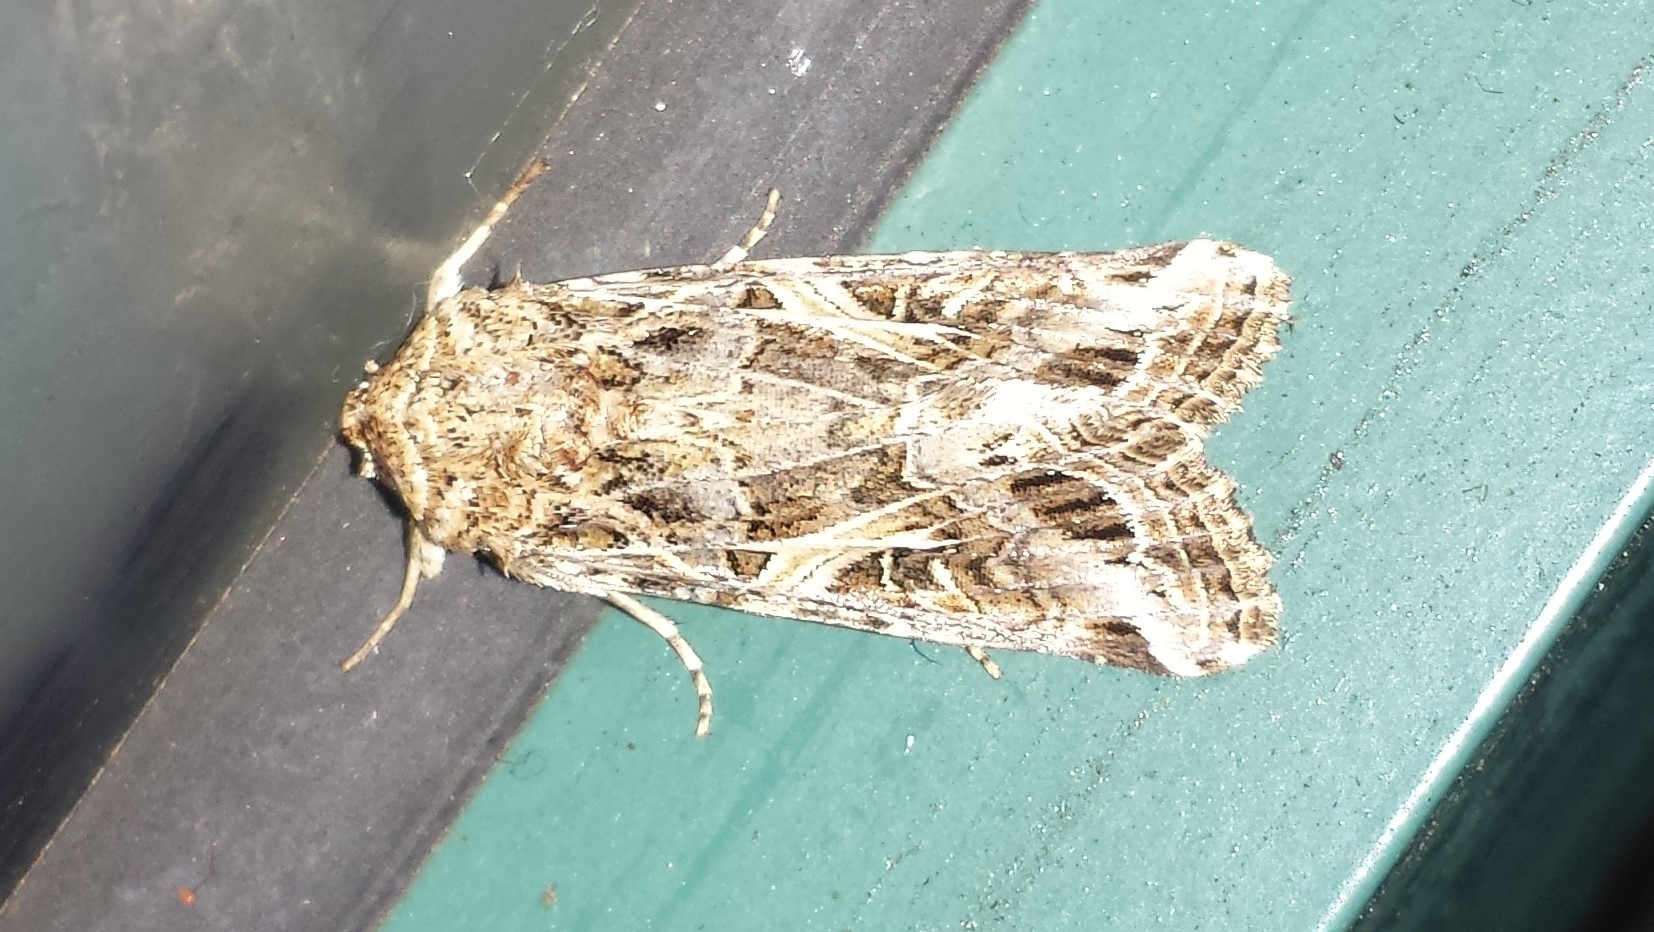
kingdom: Animalia
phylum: Arthropoda
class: Insecta
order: Lepidoptera
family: Noctuidae
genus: Spodoptera
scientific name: Spodoptera ornithogalli
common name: Yellow-striped armyworm
